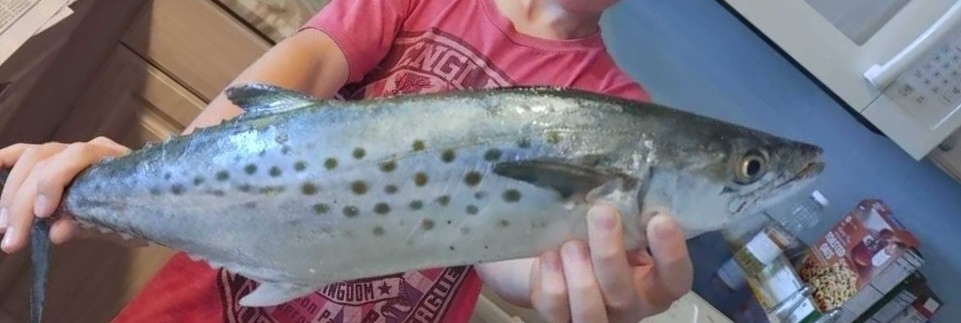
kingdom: Animalia
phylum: Chordata
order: Perciformes
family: Scombridae
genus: Scomberomorus
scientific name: Scomberomorus maculatus
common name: Spanish mackerel
